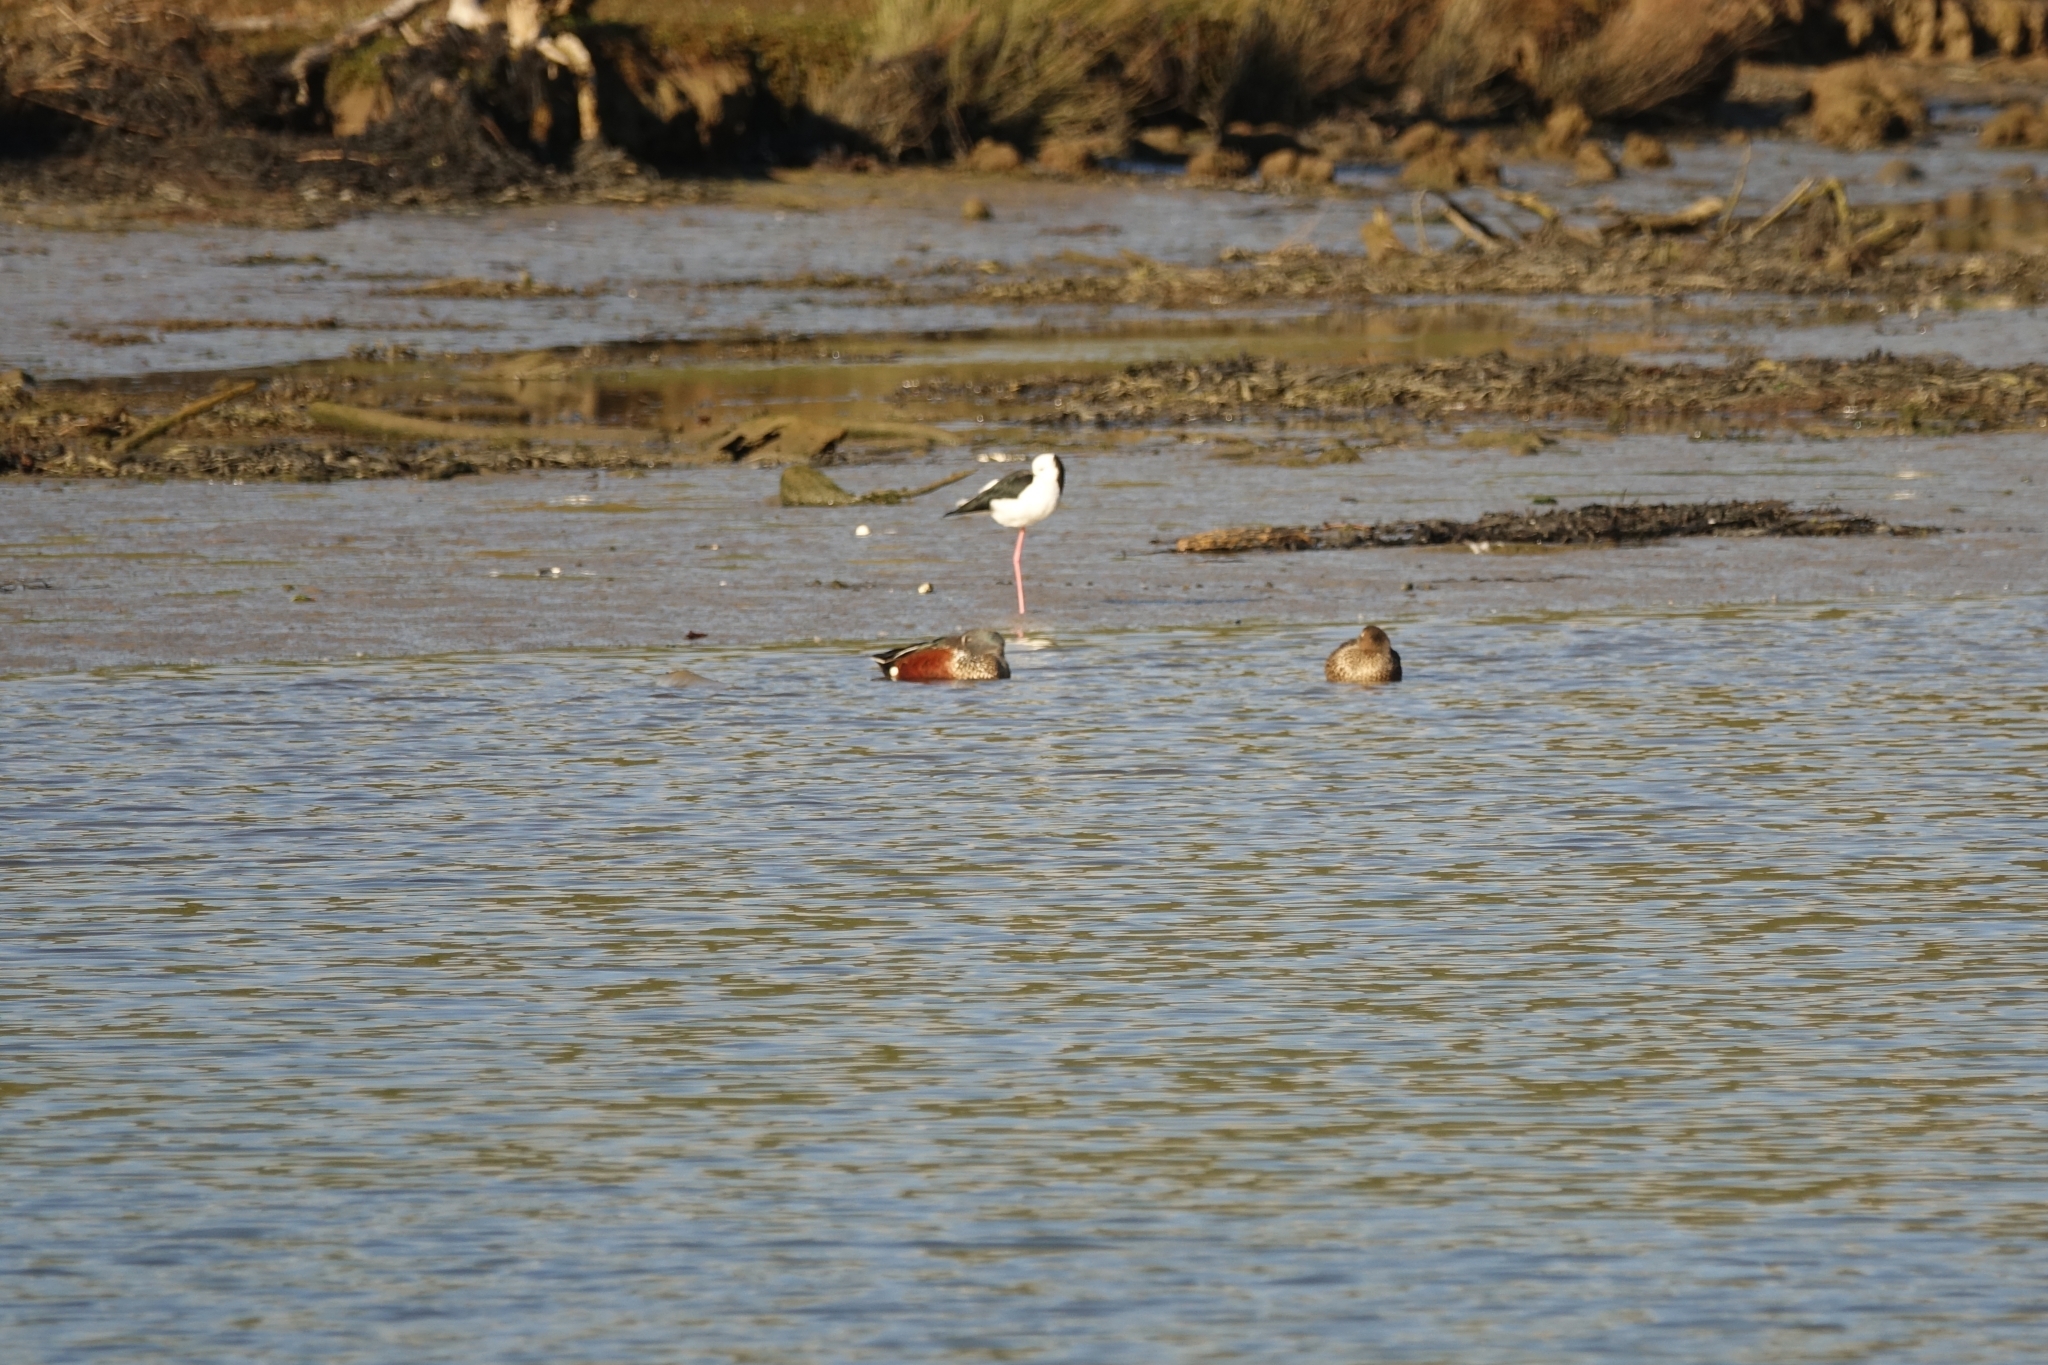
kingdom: Animalia
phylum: Chordata
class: Aves
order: Charadriiformes
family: Recurvirostridae
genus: Himantopus
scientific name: Himantopus leucocephalus
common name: White-headed stilt
